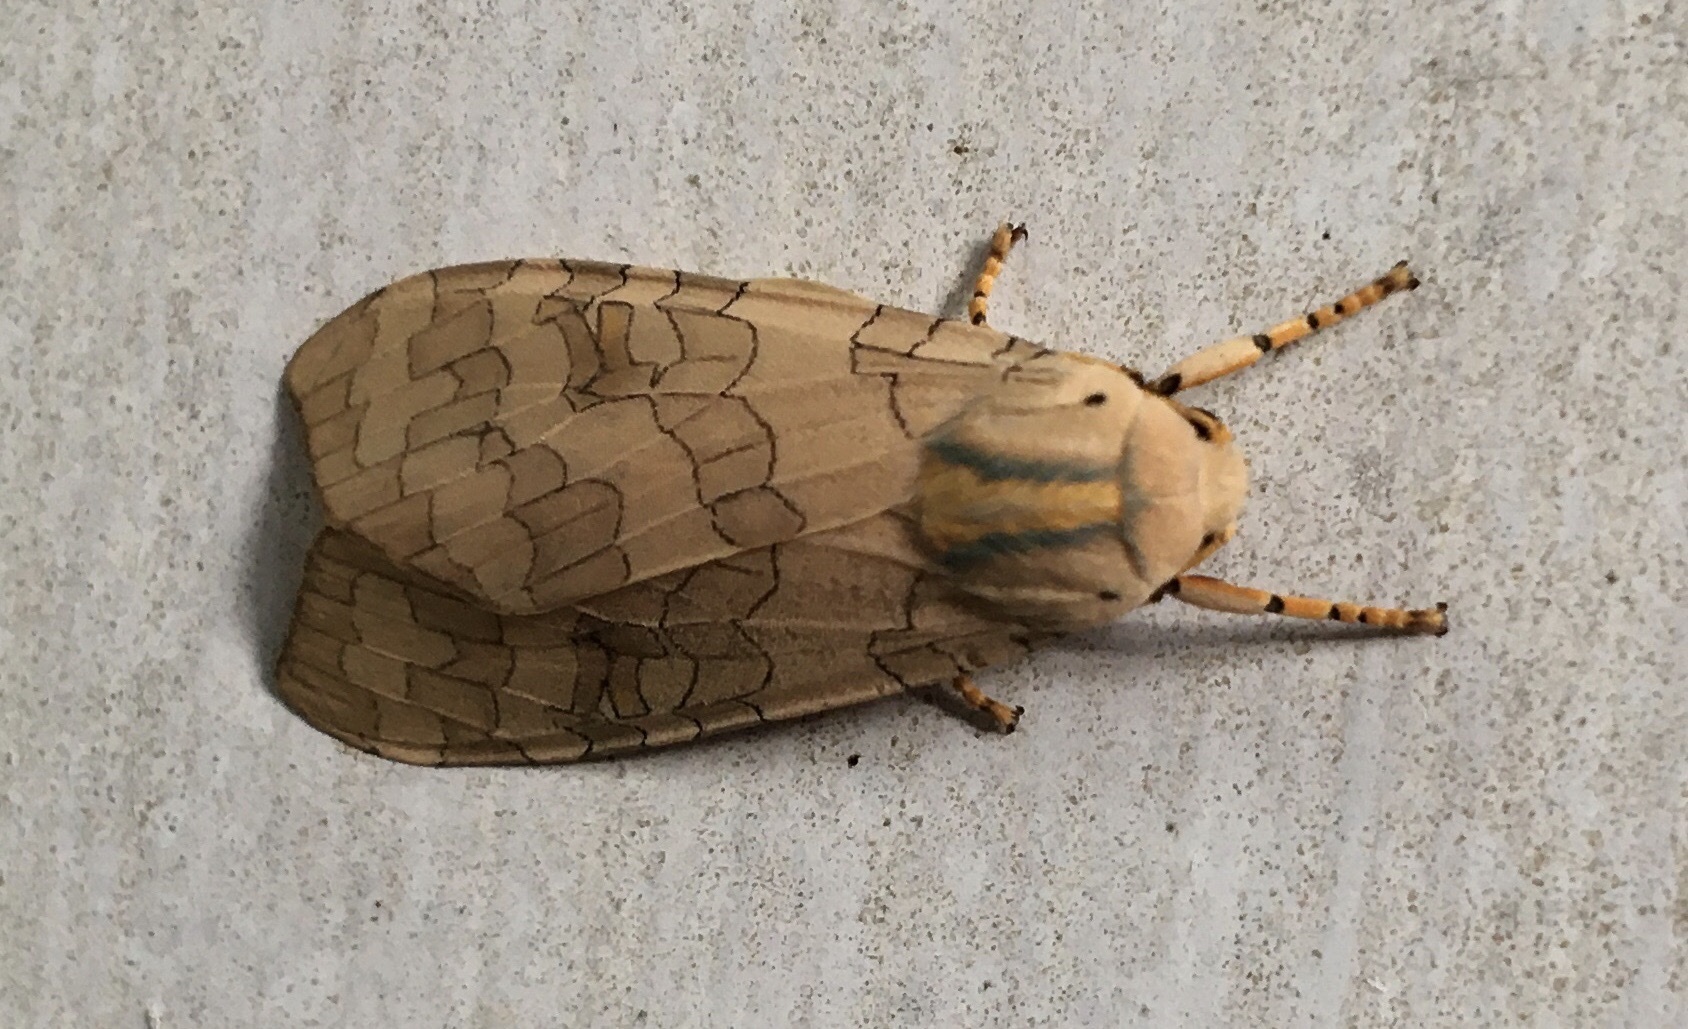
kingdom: Animalia
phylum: Arthropoda
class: Insecta
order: Lepidoptera
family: Erebidae
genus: Halysidota
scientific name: Halysidota
